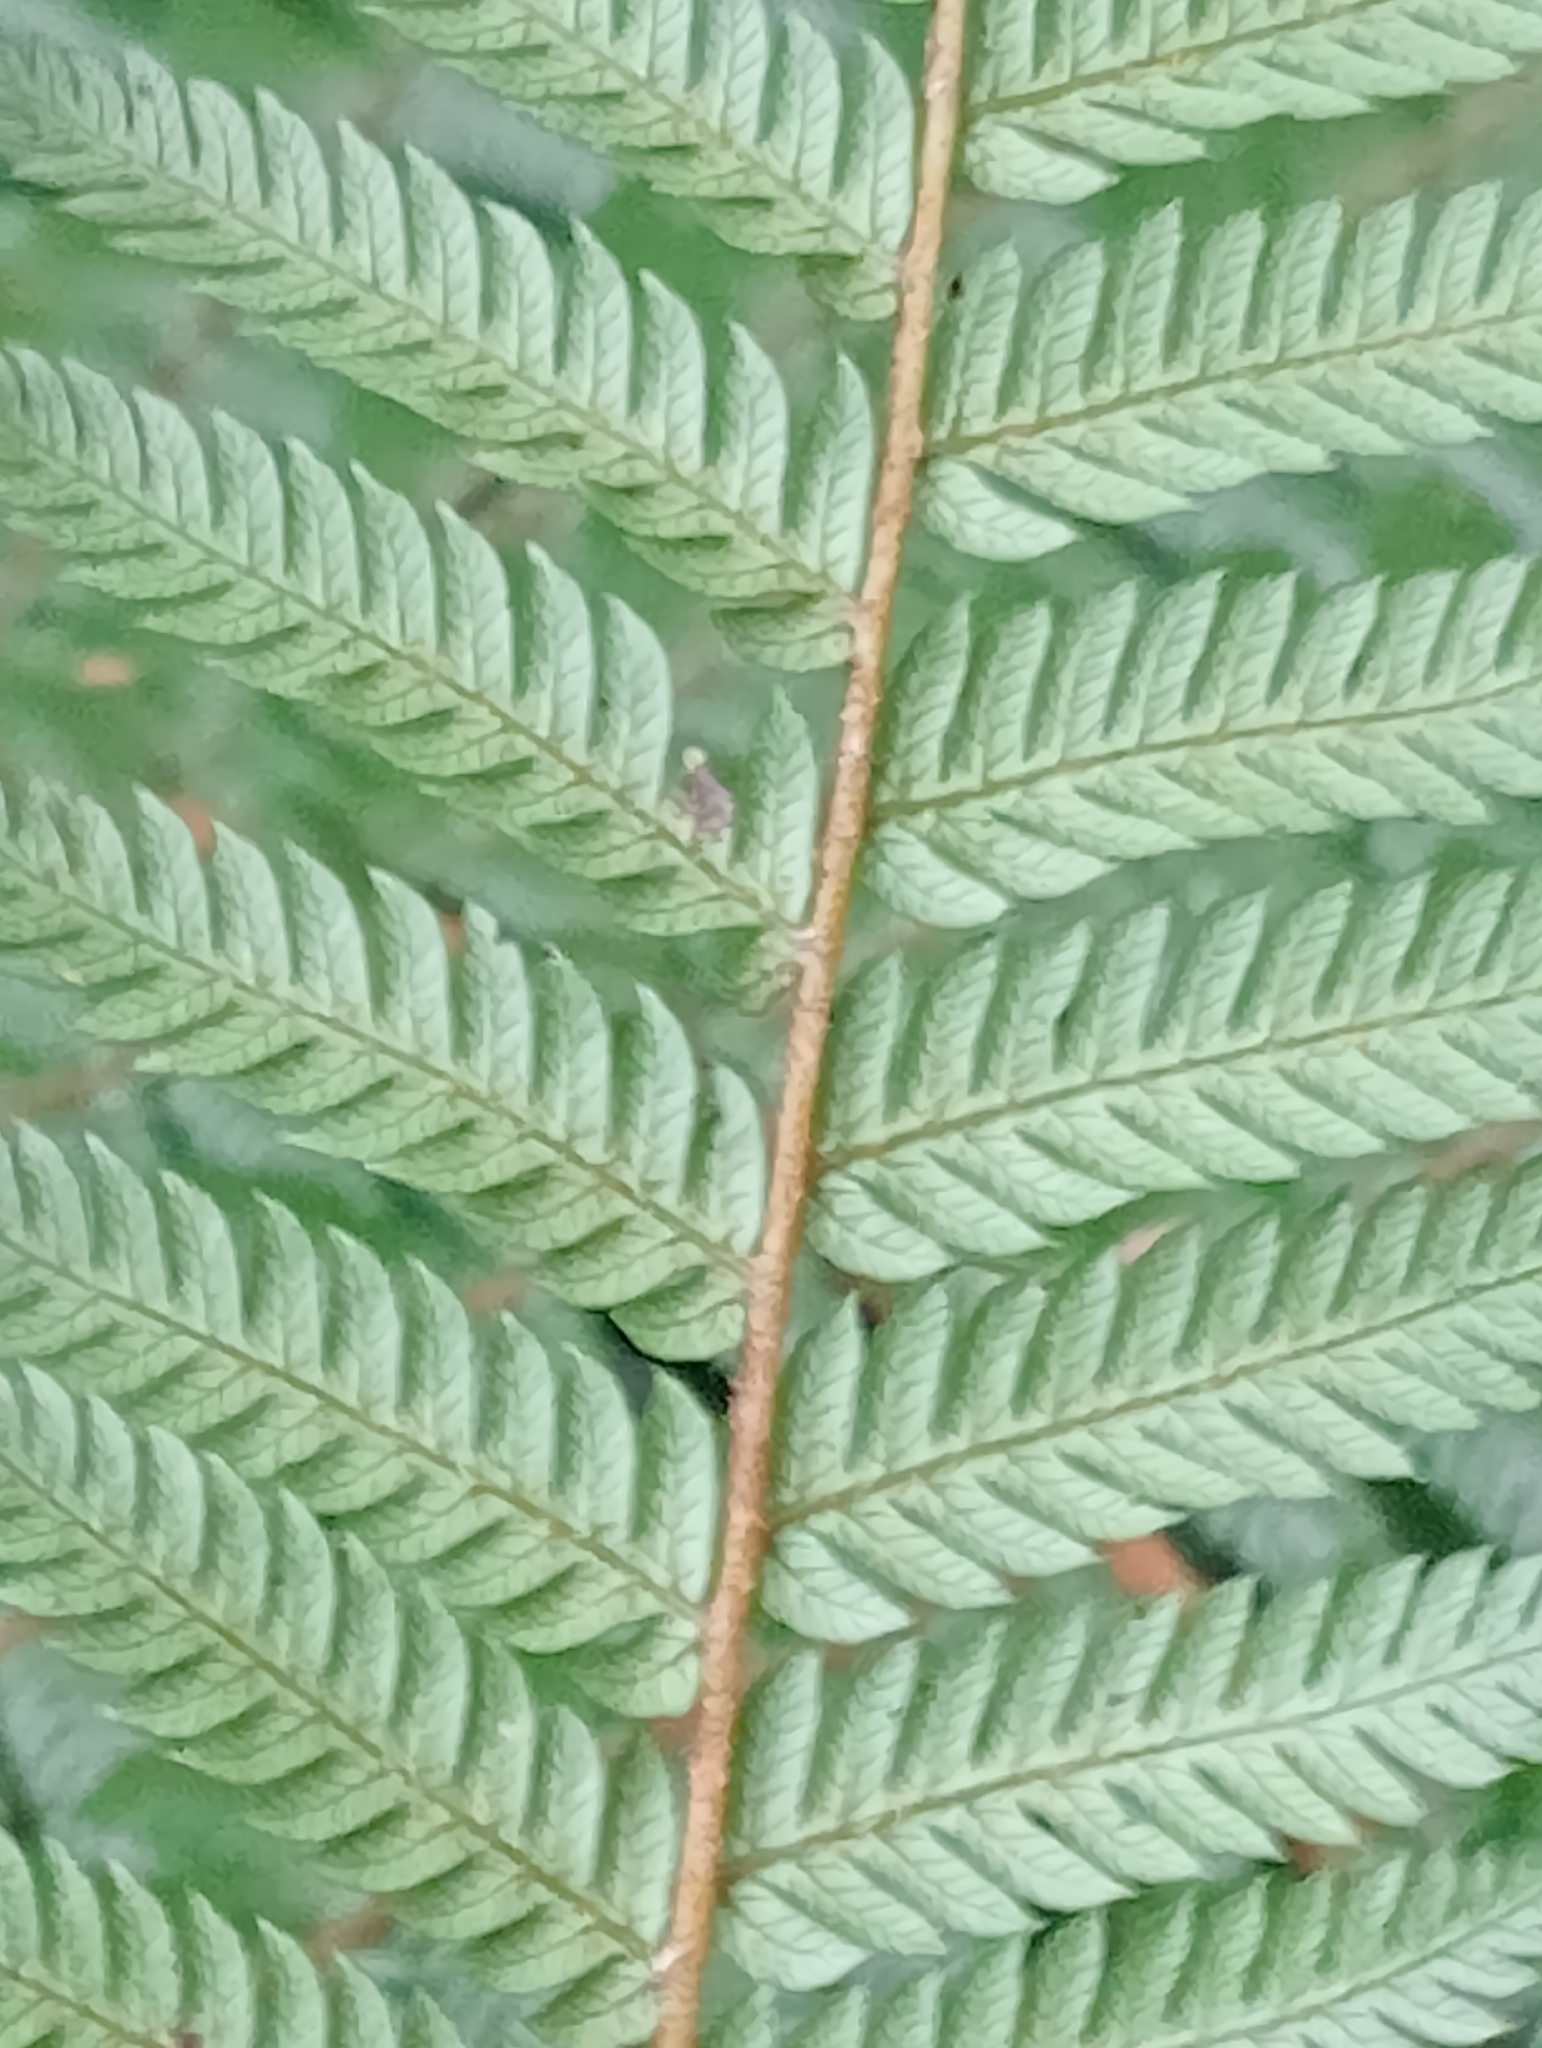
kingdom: Plantae
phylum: Tracheophyta
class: Polypodiopsida
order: Cyatheales
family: Cyatheaceae
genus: Alsophila
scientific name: Alsophila smithii
